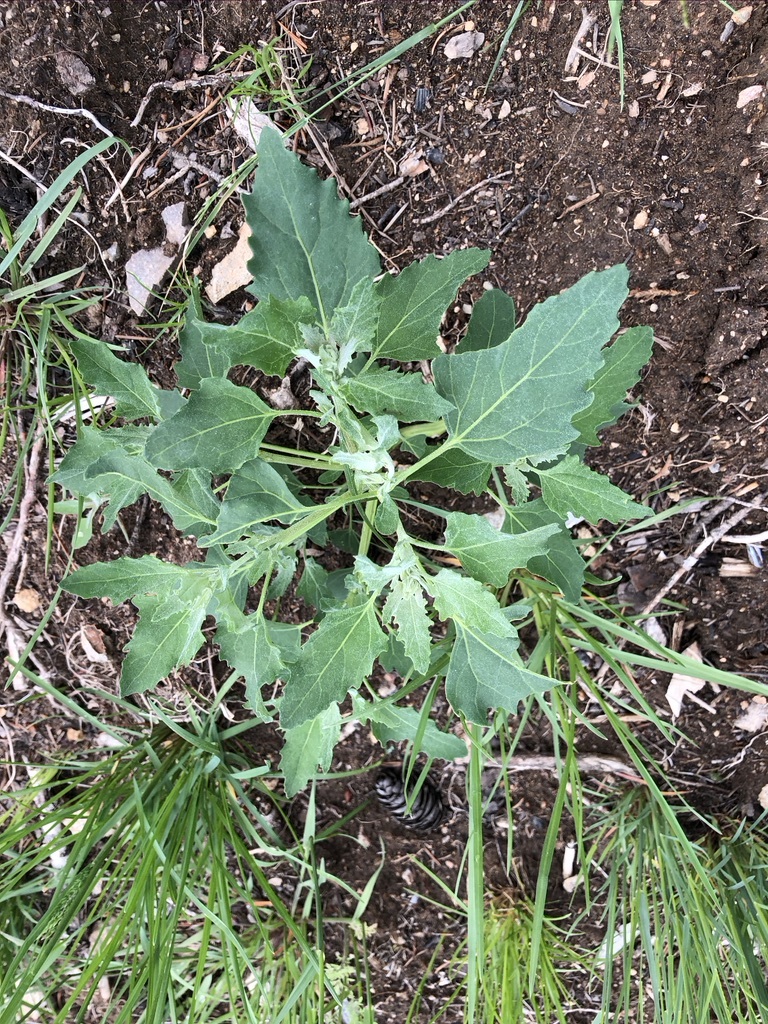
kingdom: Plantae
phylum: Tracheophyta
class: Magnoliopsida
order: Caryophyllales
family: Amaranthaceae
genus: Chenopodium
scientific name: Chenopodium album
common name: Fat-hen
